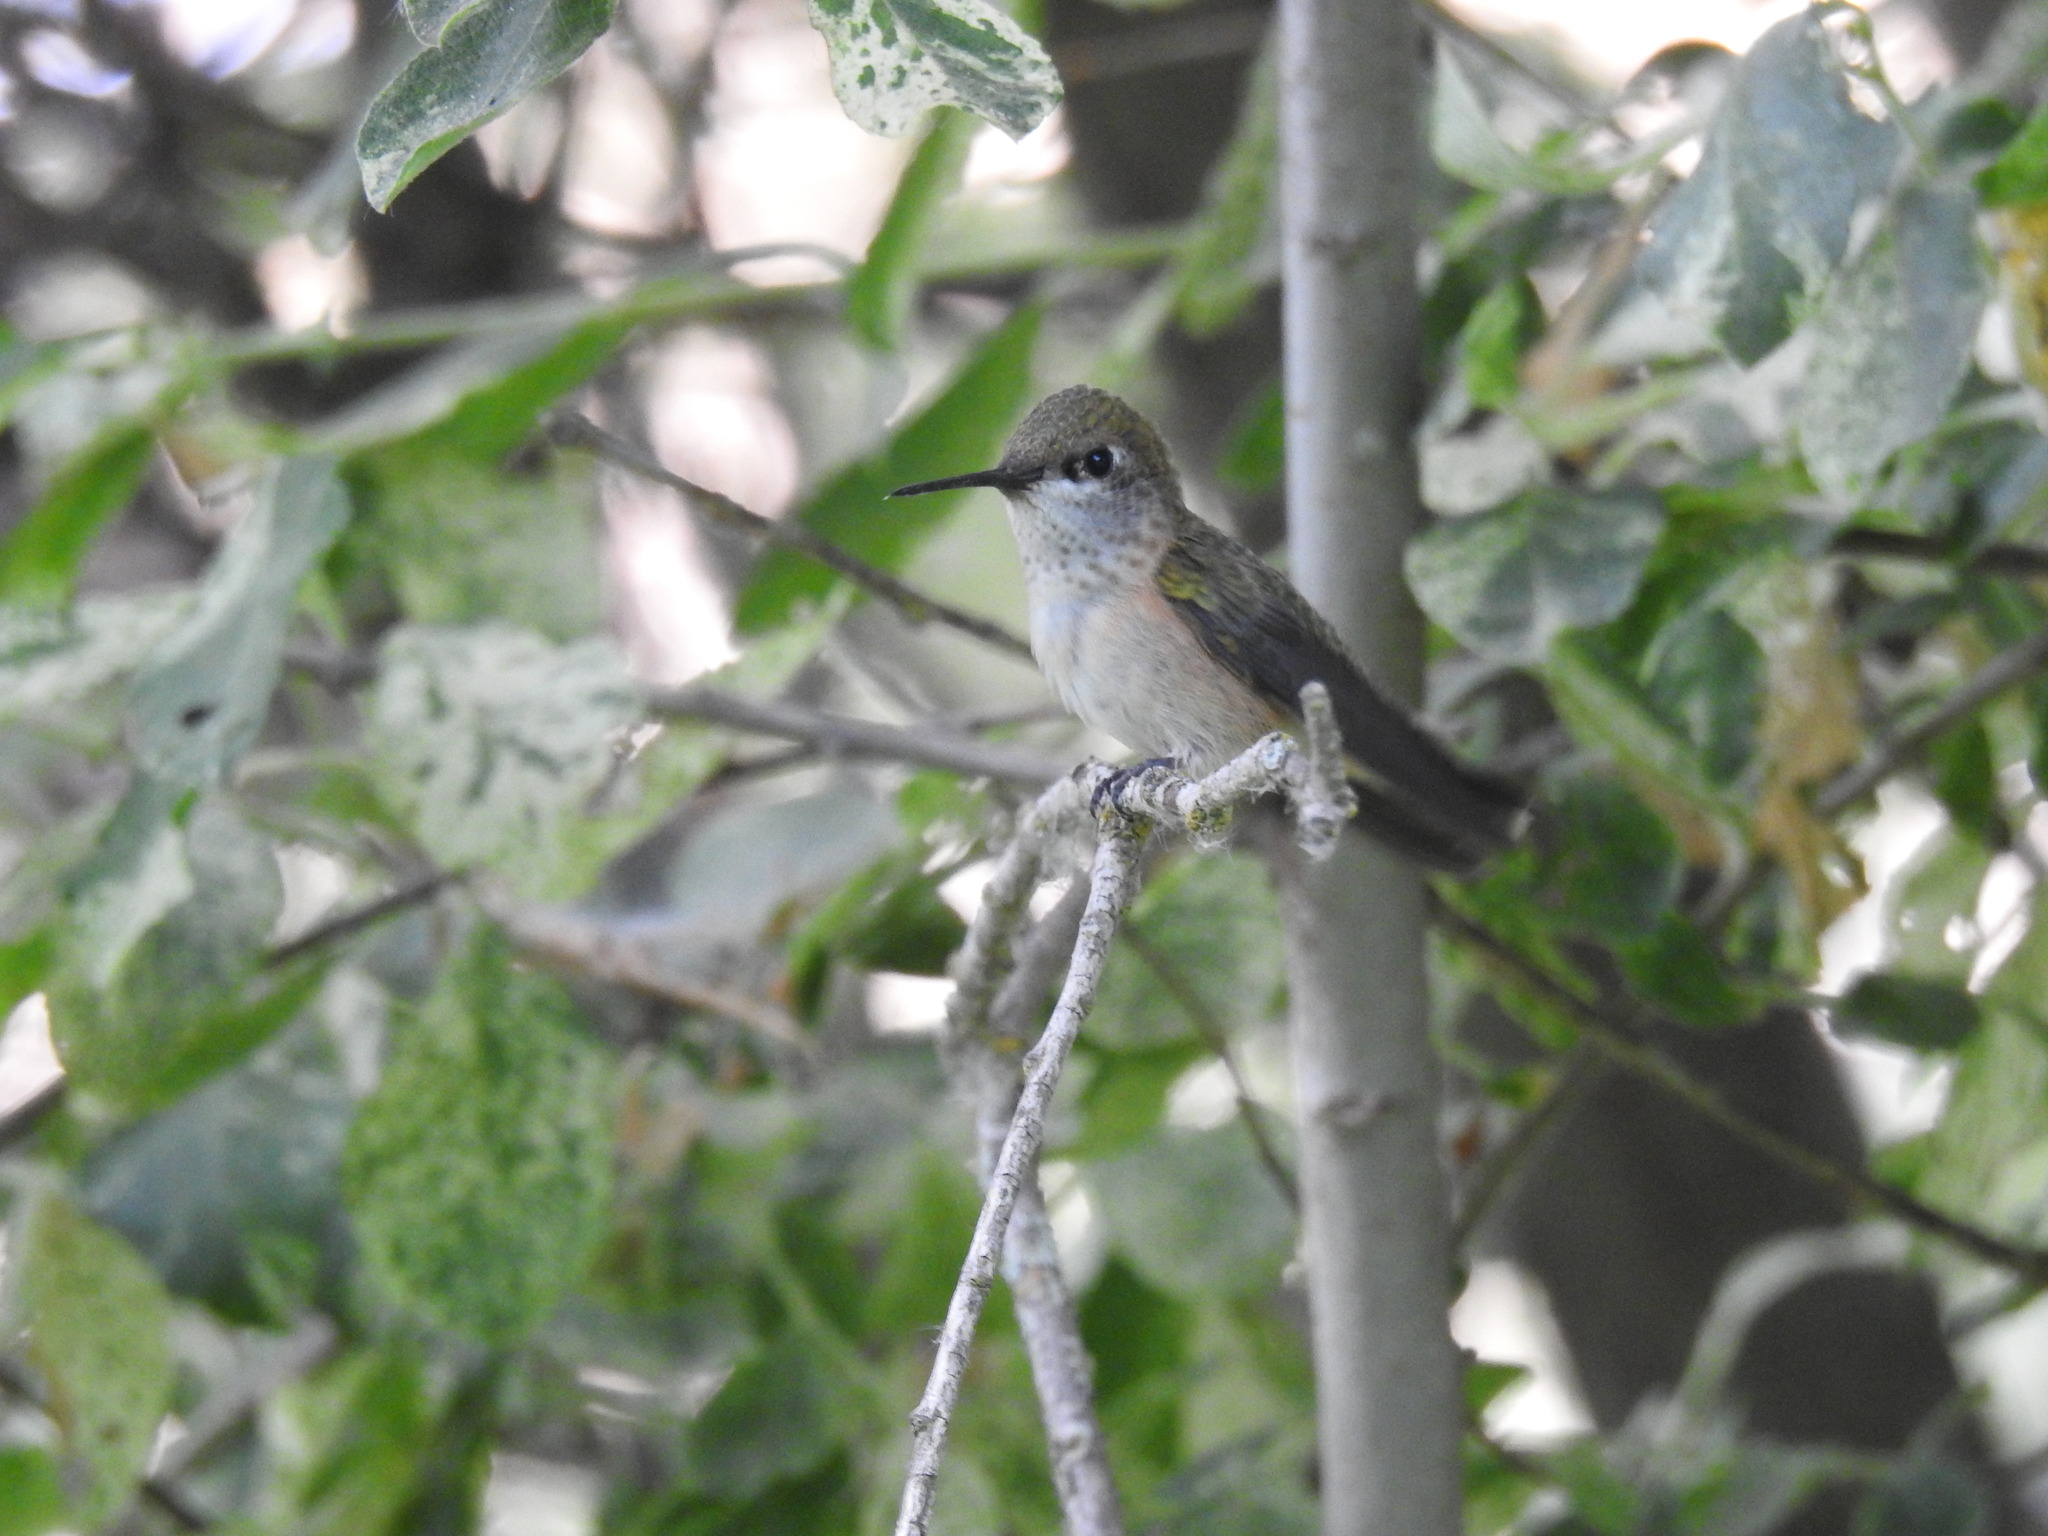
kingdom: Animalia
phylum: Chordata
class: Aves
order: Apodiformes
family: Trochilidae
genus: Selasphorus
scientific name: Selasphorus calliope
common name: Calliope hummingbird
